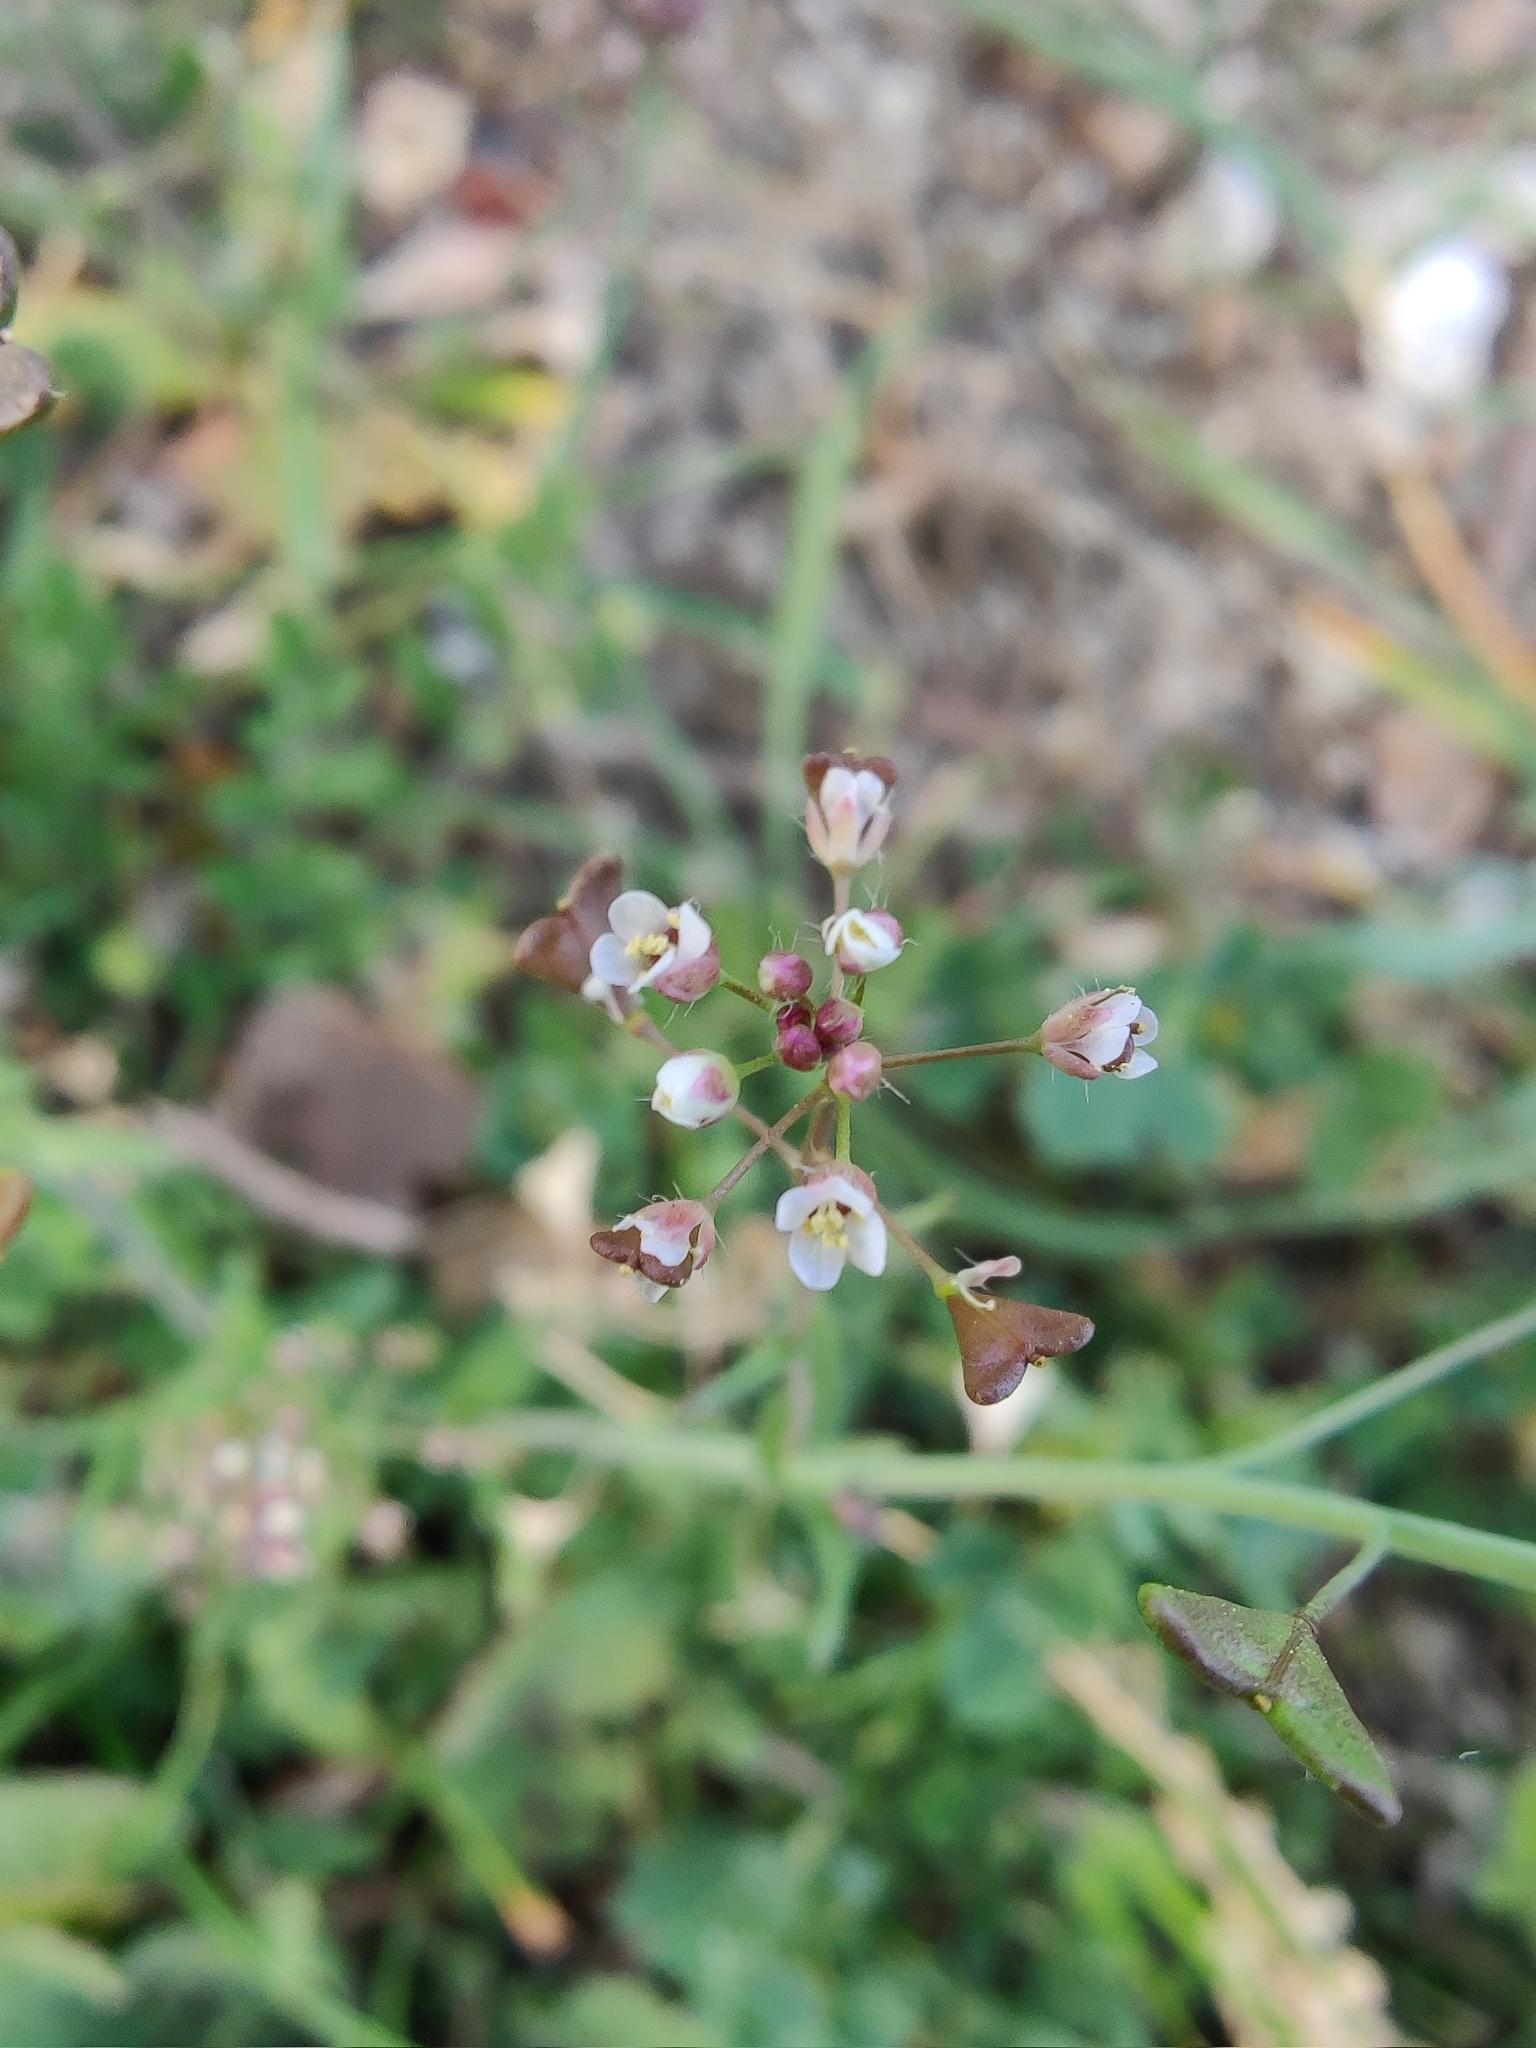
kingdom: Plantae
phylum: Tracheophyta
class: Magnoliopsida
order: Brassicales
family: Brassicaceae
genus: Capsella
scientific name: Capsella bursa-pastoris
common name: Shepherd's purse
